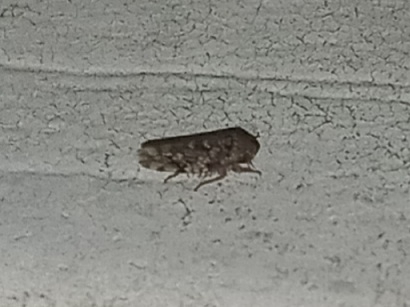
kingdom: Animalia
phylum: Arthropoda
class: Insecta
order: Hemiptera
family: Cicadellidae
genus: Xestocephalus
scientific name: Xestocephalus tessellatus
